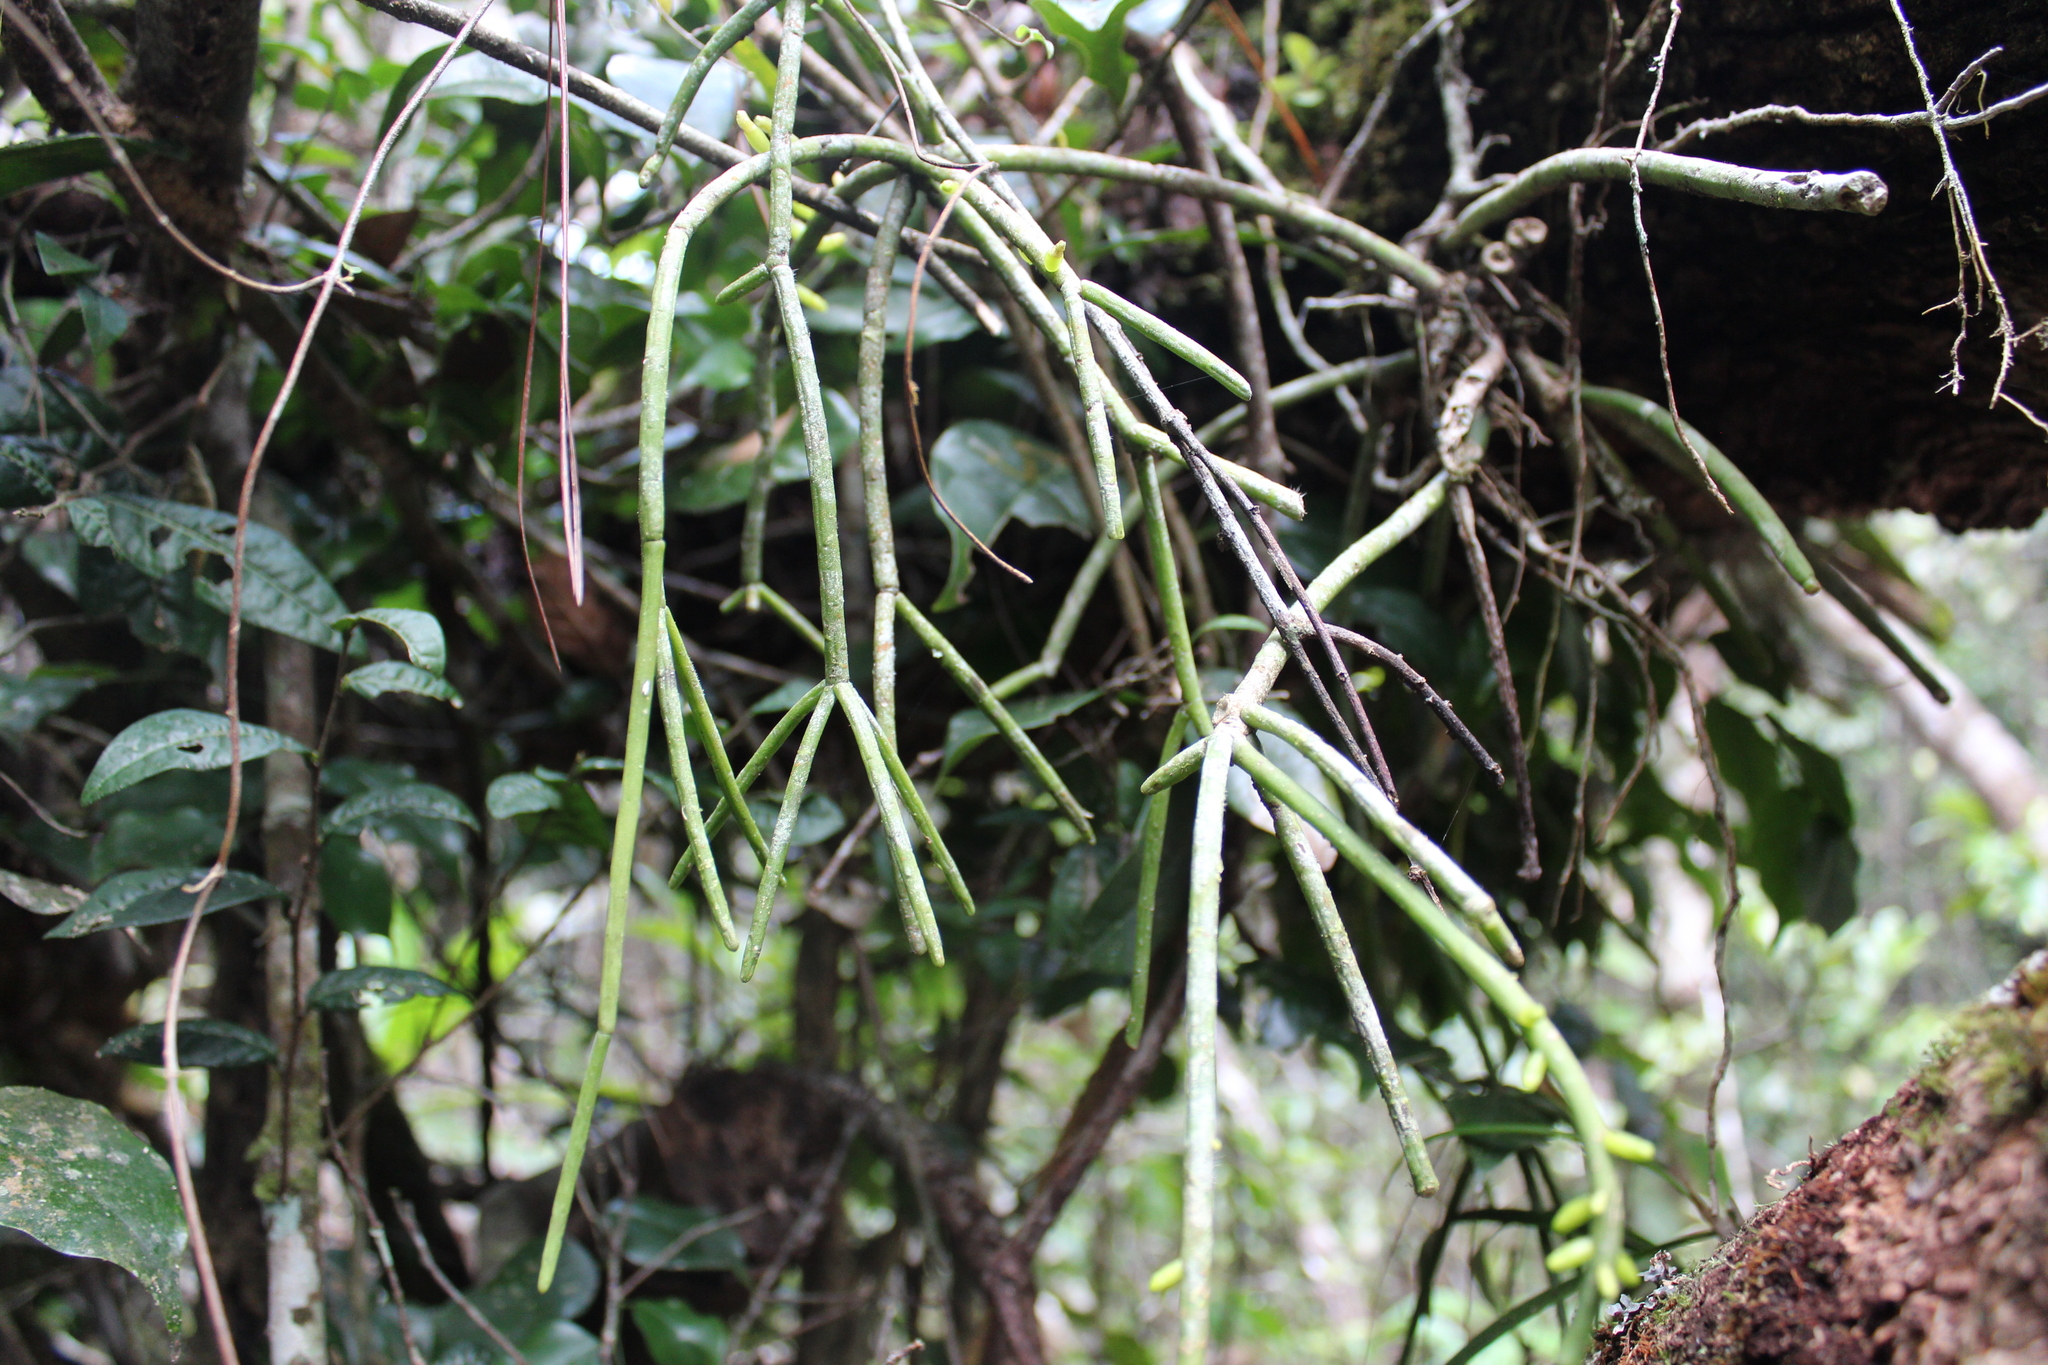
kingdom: Plantae
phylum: Tracheophyta
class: Magnoliopsida
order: Caryophyllales
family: Cactaceae
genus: Rhipsalis
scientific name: Rhipsalis baccifera
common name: Mistletoe cactus
